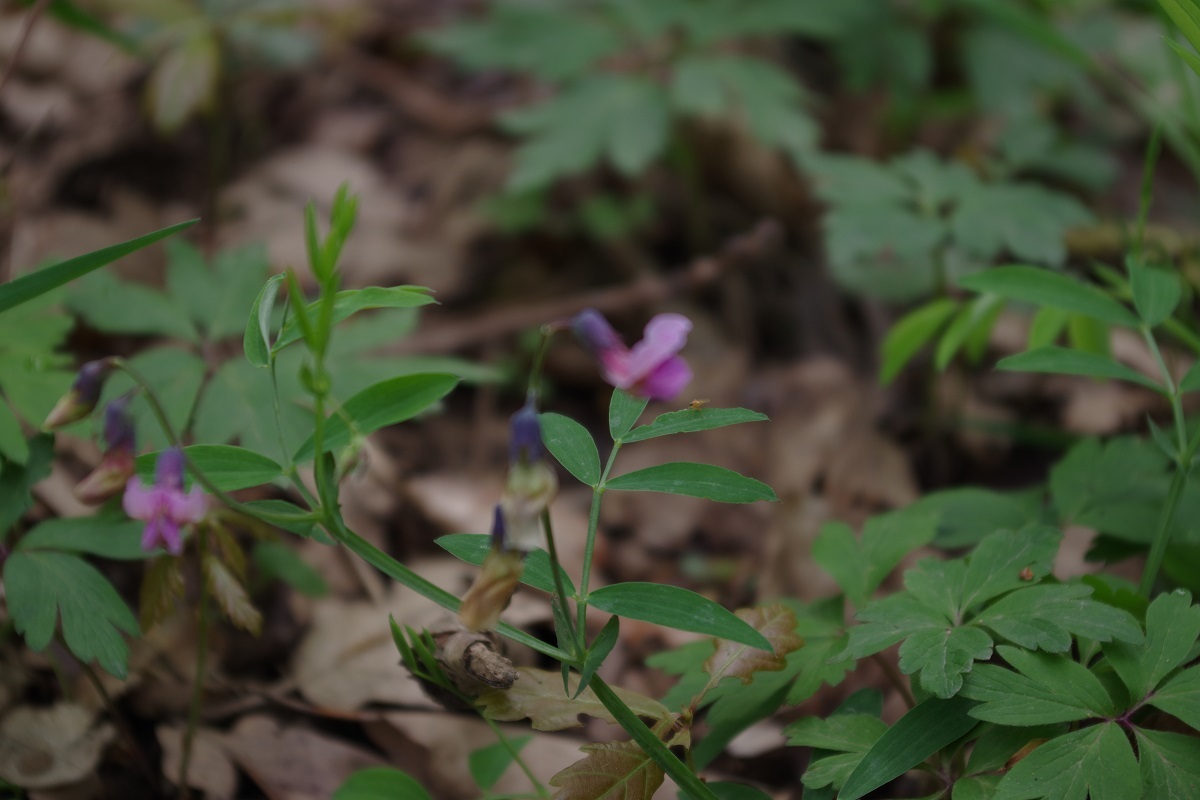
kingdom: Plantae
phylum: Tracheophyta
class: Magnoliopsida
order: Fabales
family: Fabaceae
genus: Lathyrus
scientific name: Lathyrus linifolius
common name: Bitter-vetch
